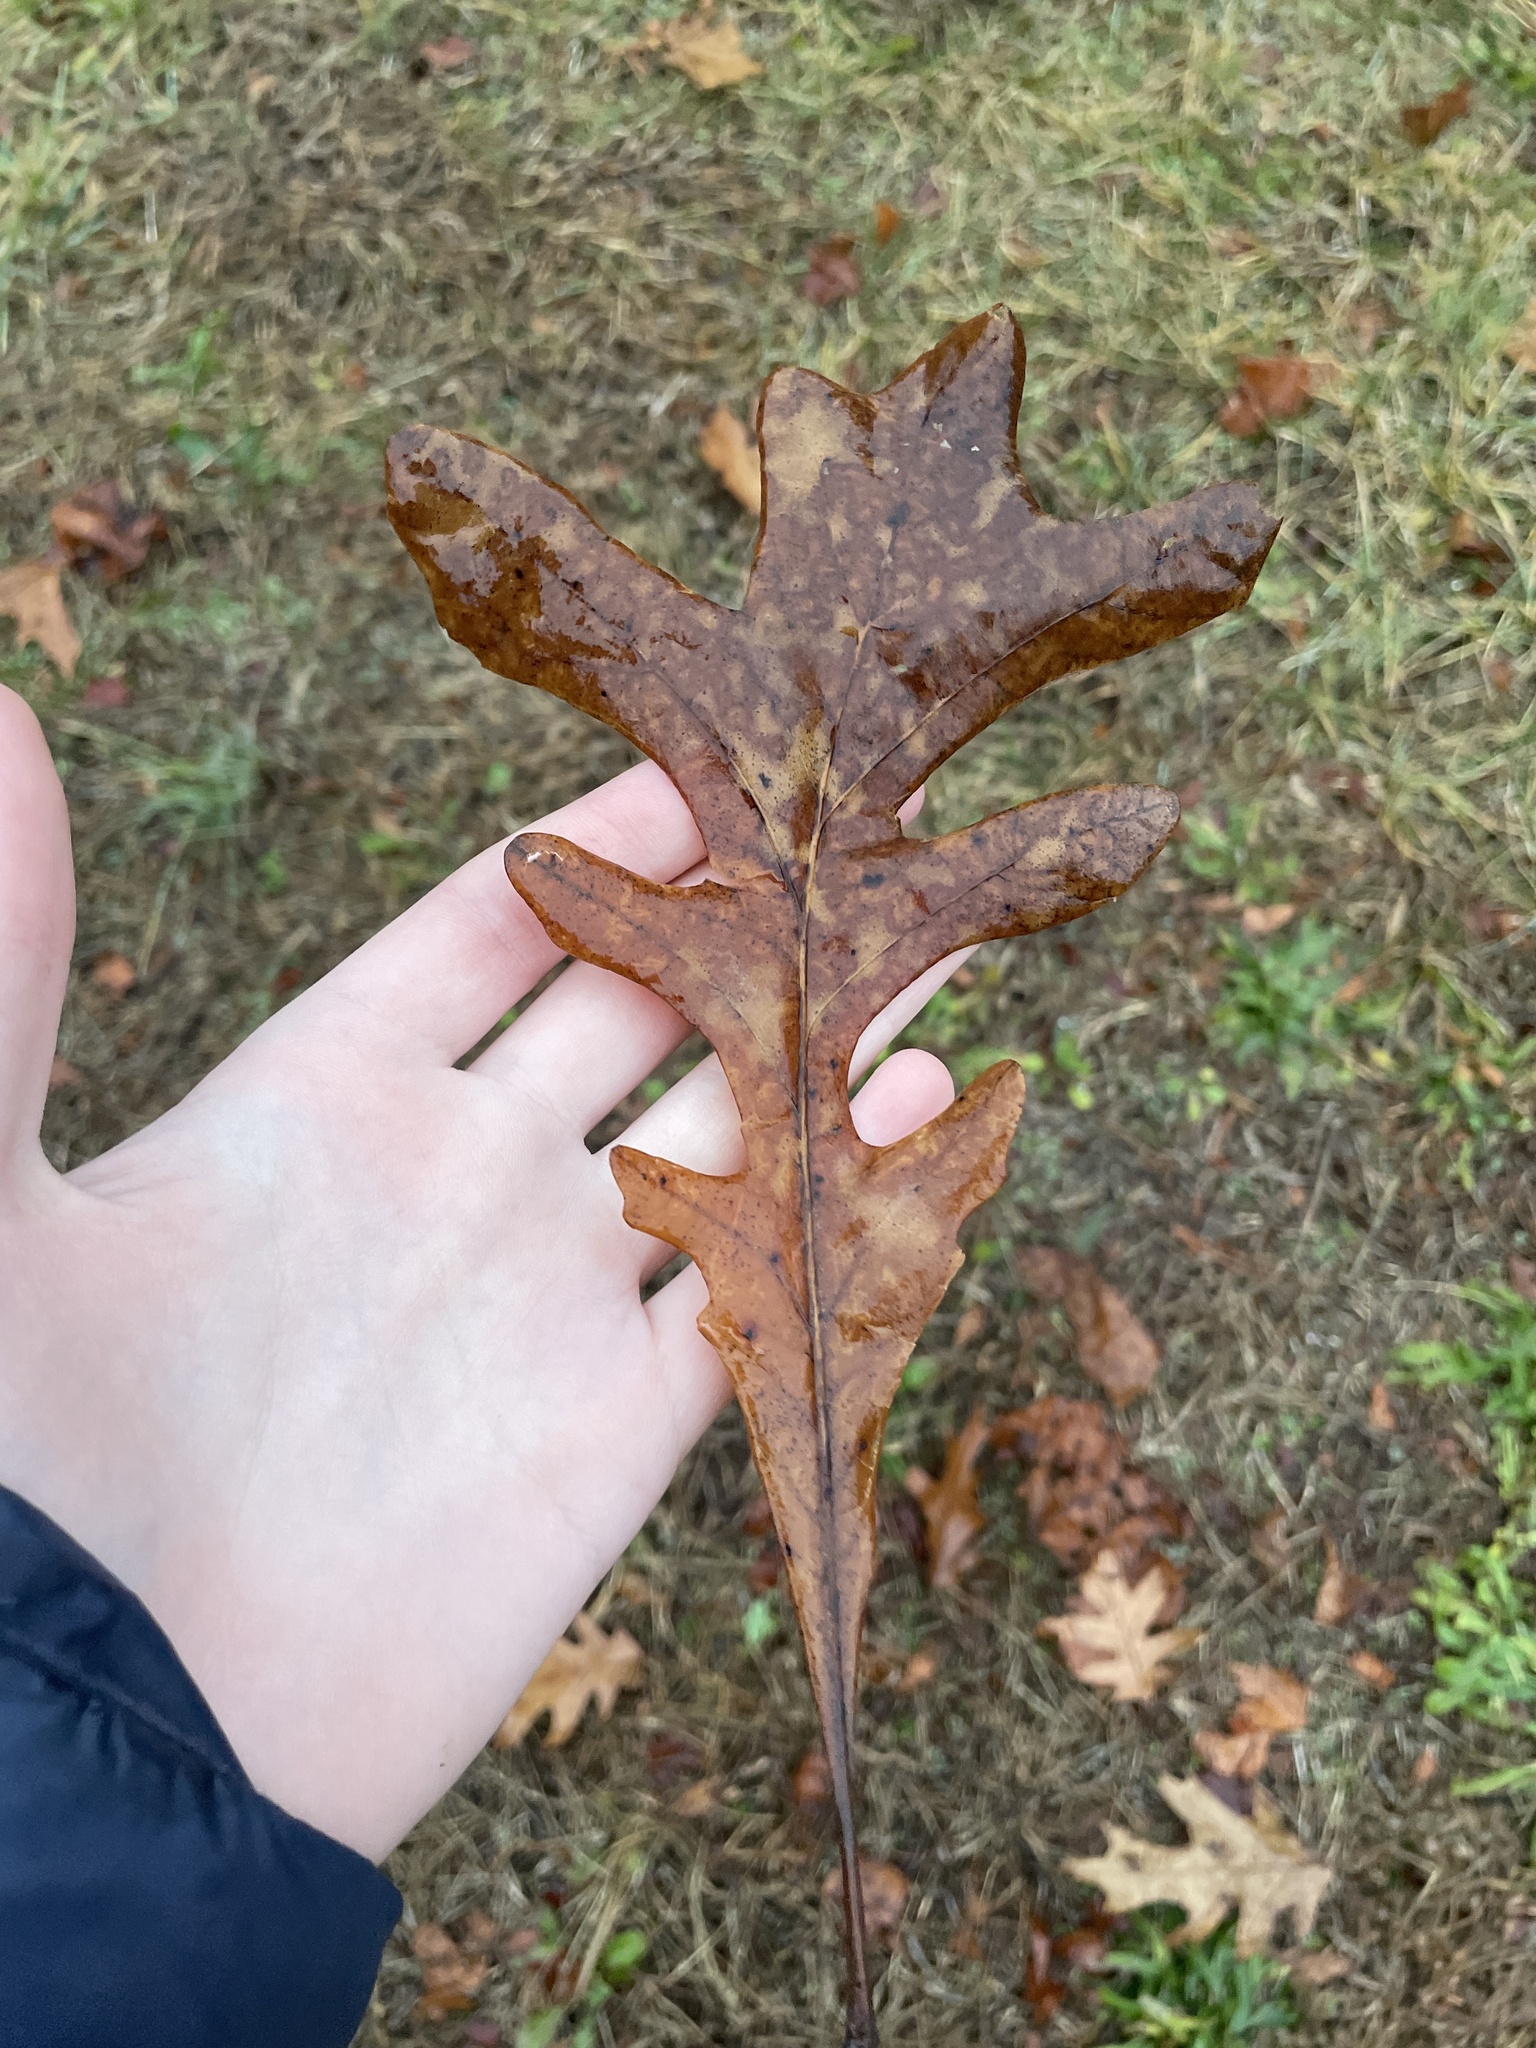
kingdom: Plantae
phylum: Tracheophyta
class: Magnoliopsida
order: Fagales
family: Fagaceae
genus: Quercus
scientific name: Quercus alba
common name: White oak
